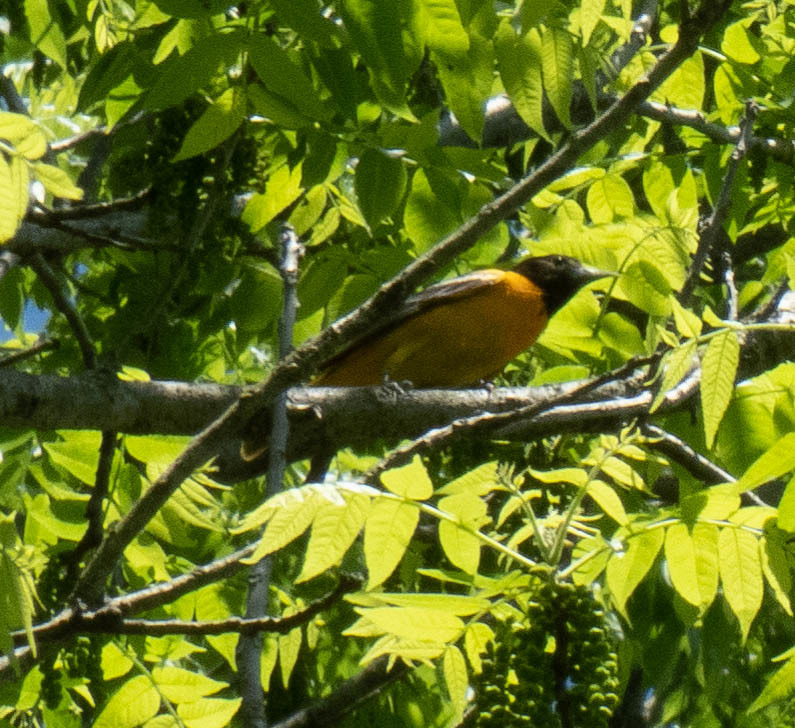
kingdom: Animalia
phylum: Chordata
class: Aves
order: Passeriformes
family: Icteridae
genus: Icterus
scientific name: Icterus galbula
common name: Baltimore oriole
